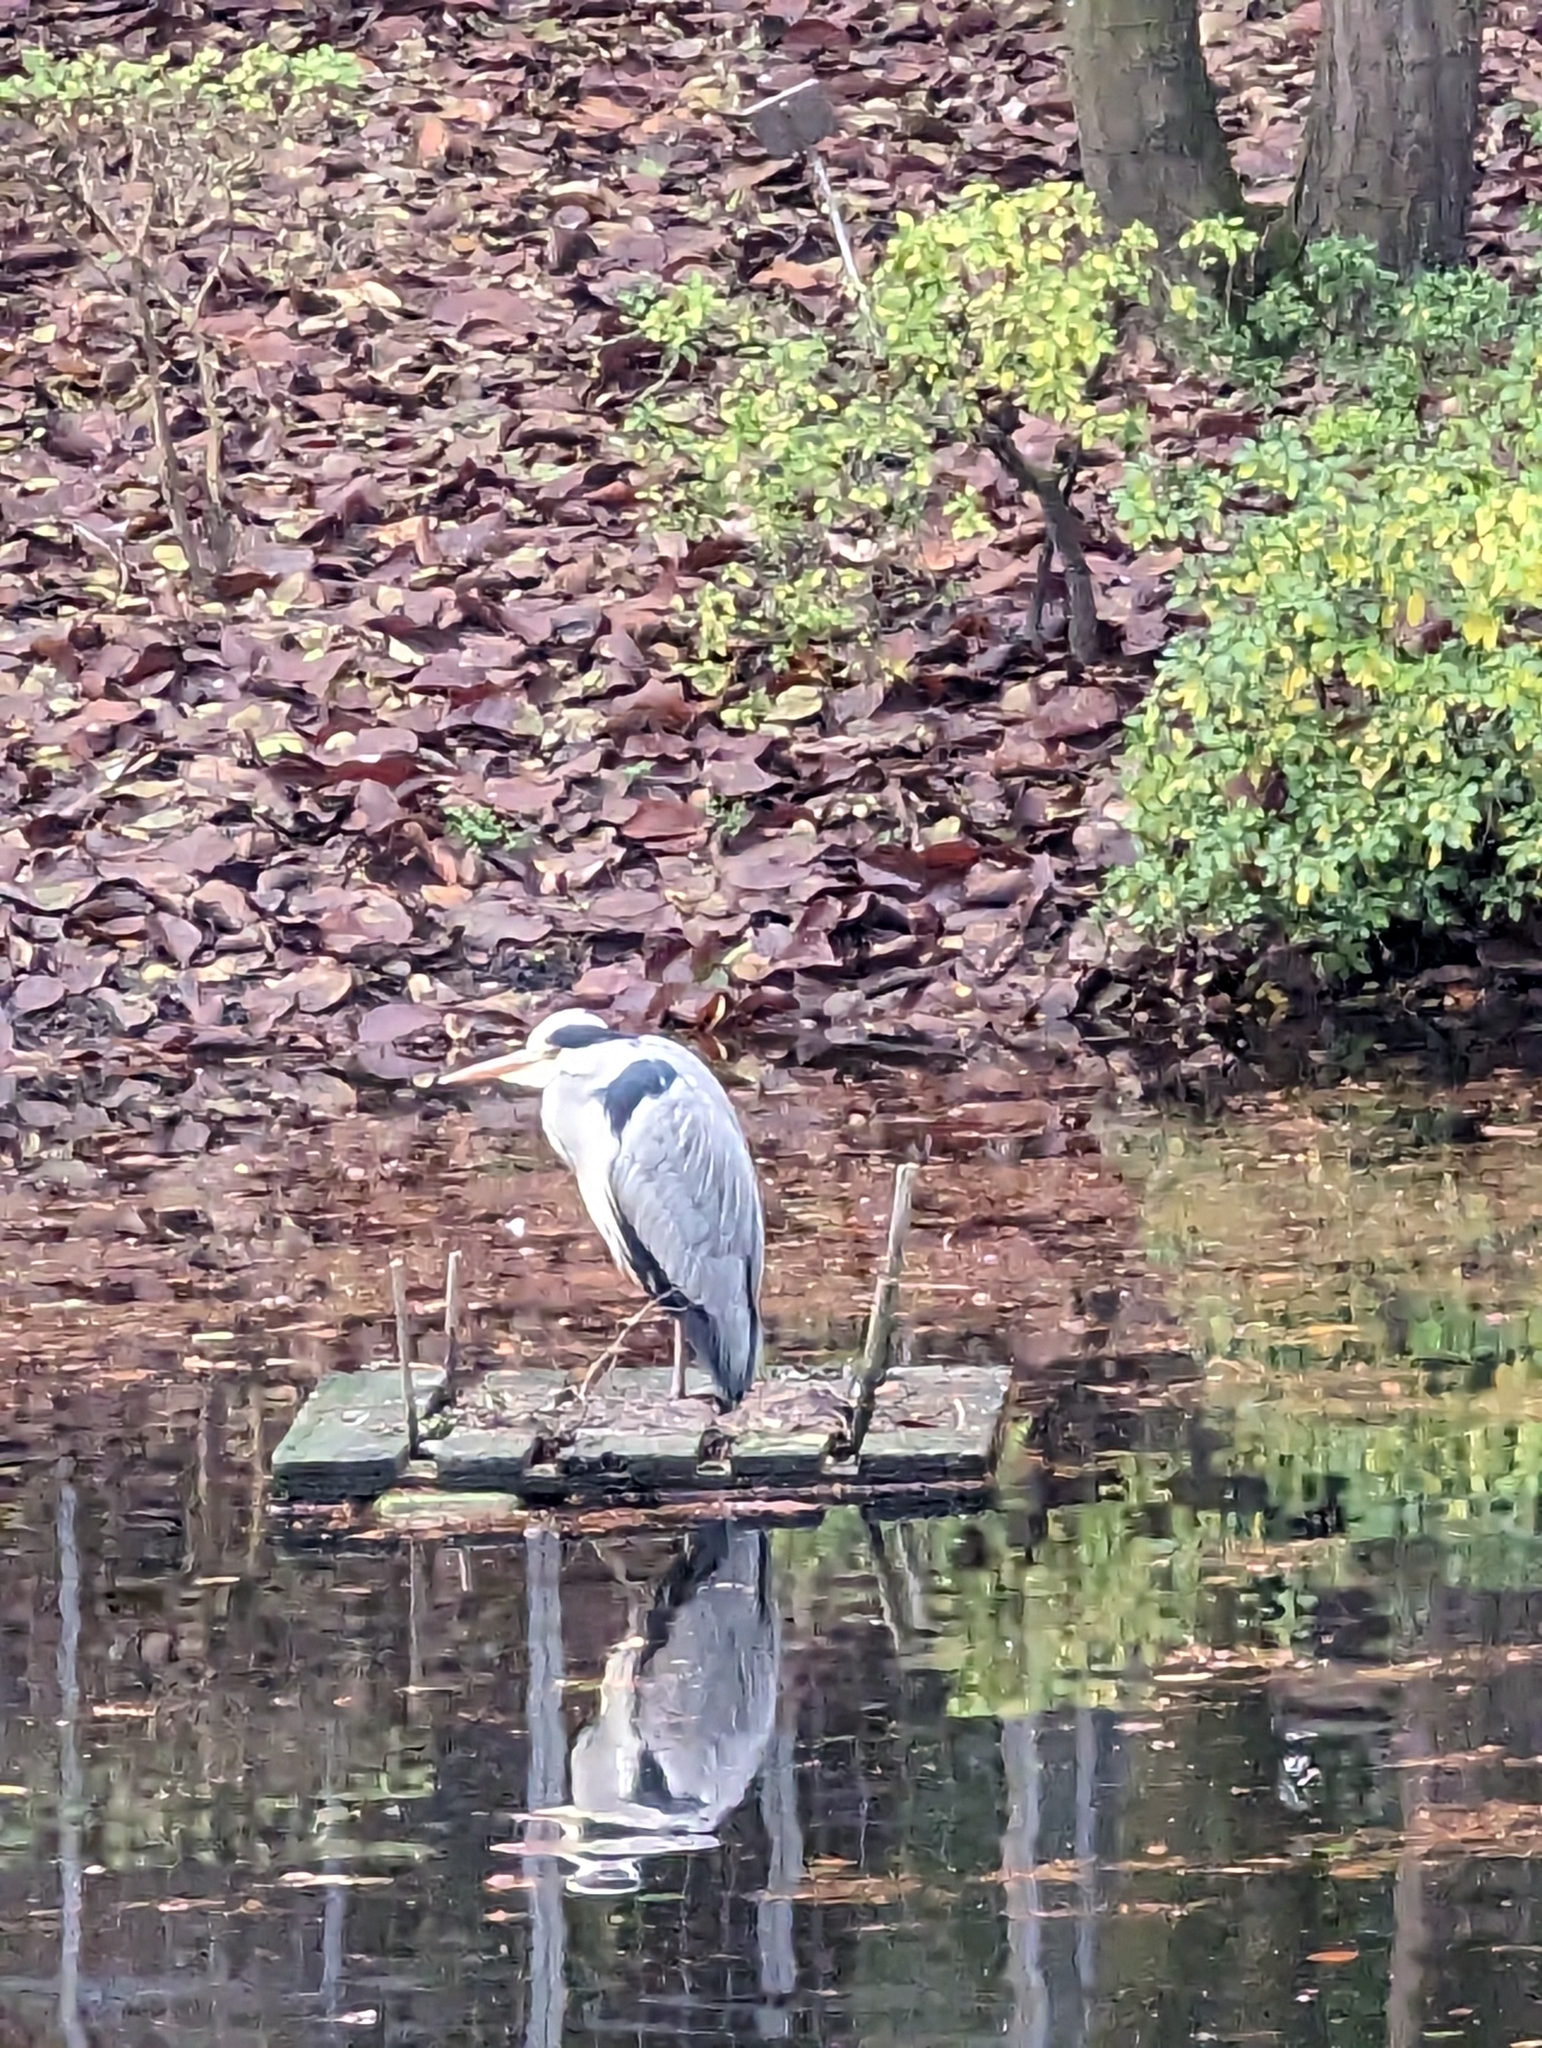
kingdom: Animalia
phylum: Chordata
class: Aves
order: Pelecaniformes
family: Ardeidae
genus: Ardea
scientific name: Ardea cinerea
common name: Grey heron
